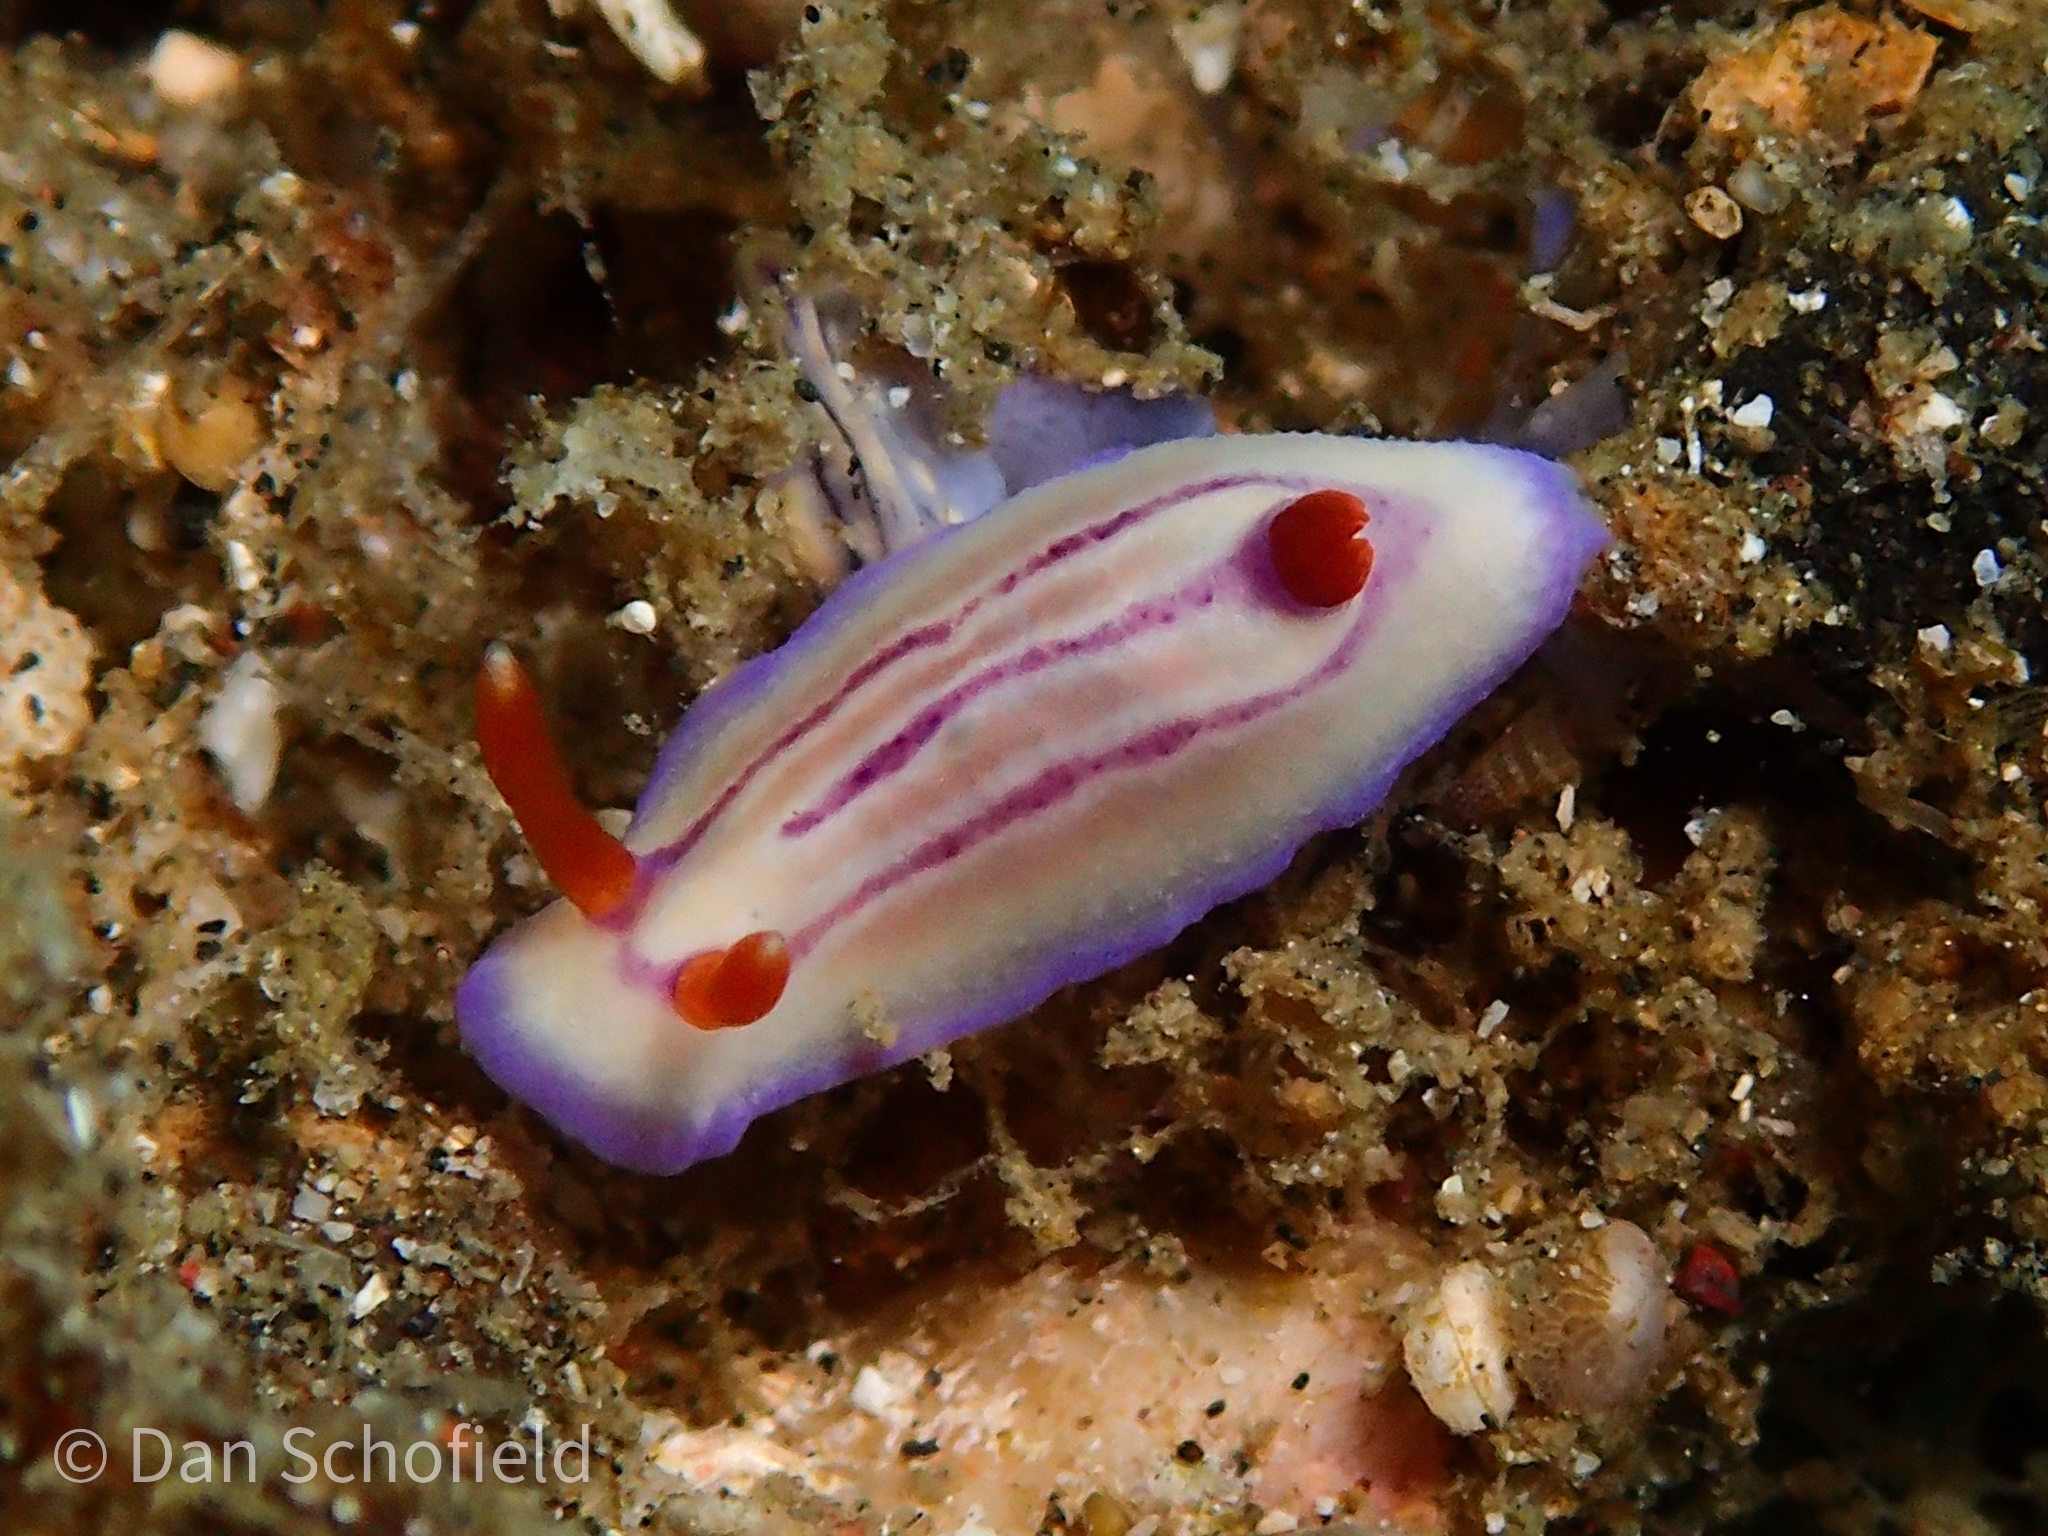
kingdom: Animalia
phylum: Mollusca
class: Gastropoda
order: Nudibranchia
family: Chromodorididae
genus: Hypselodoris
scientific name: Hypselodoris emma
